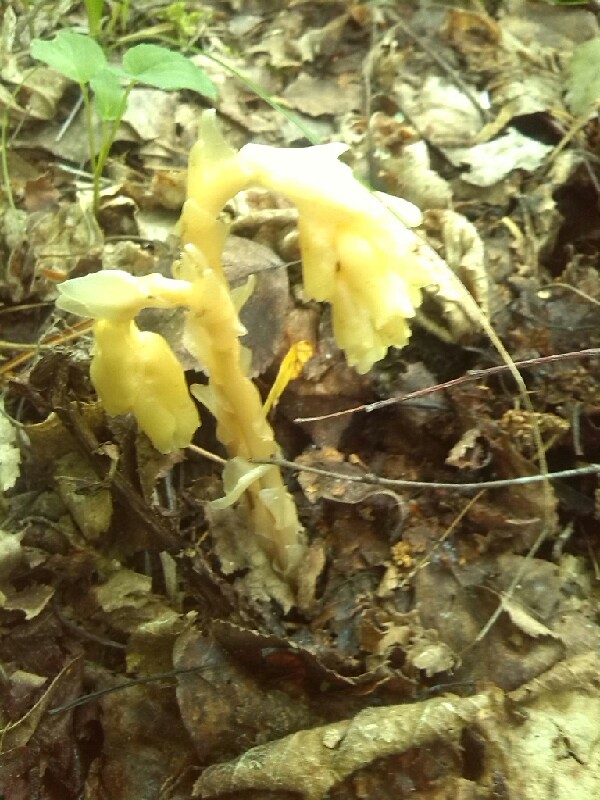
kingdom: Plantae
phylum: Tracheophyta
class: Magnoliopsida
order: Ericales
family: Ericaceae
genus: Hypopitys
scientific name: Hypopitys monotropa
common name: Yellow bird's-nest
